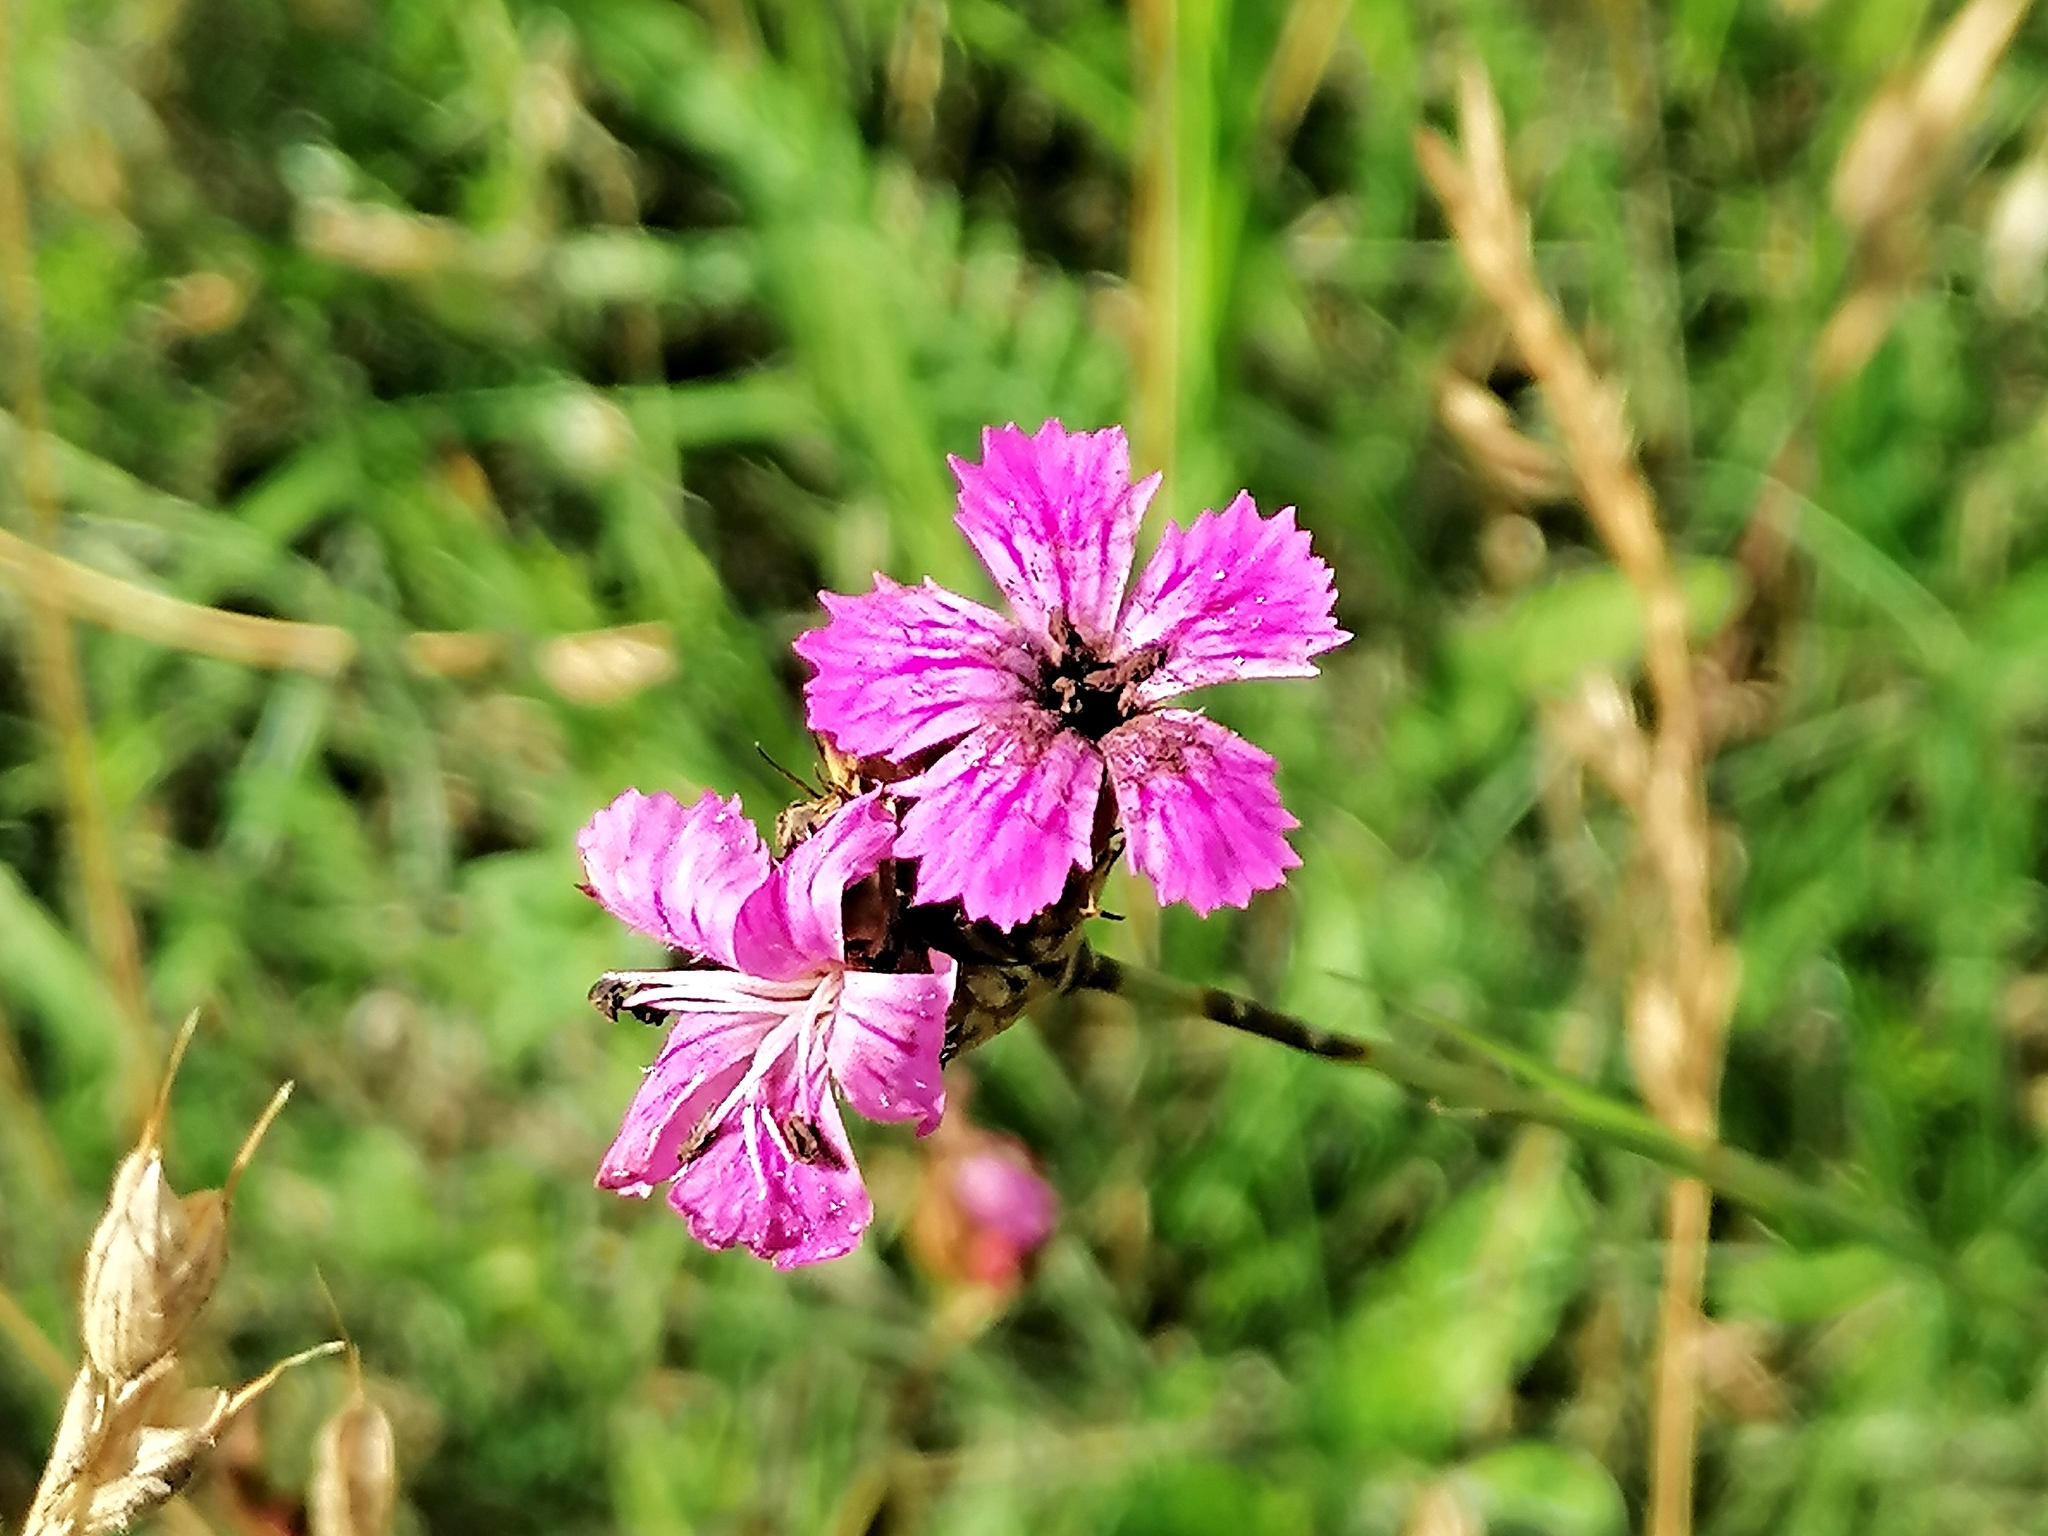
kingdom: Plantae
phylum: Tracheophyta
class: Magnoliopsida
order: Caryophyllales
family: Caryophyllaceae
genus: Dianthus
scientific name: Dianthus carthusianorum
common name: Carthusian pink
